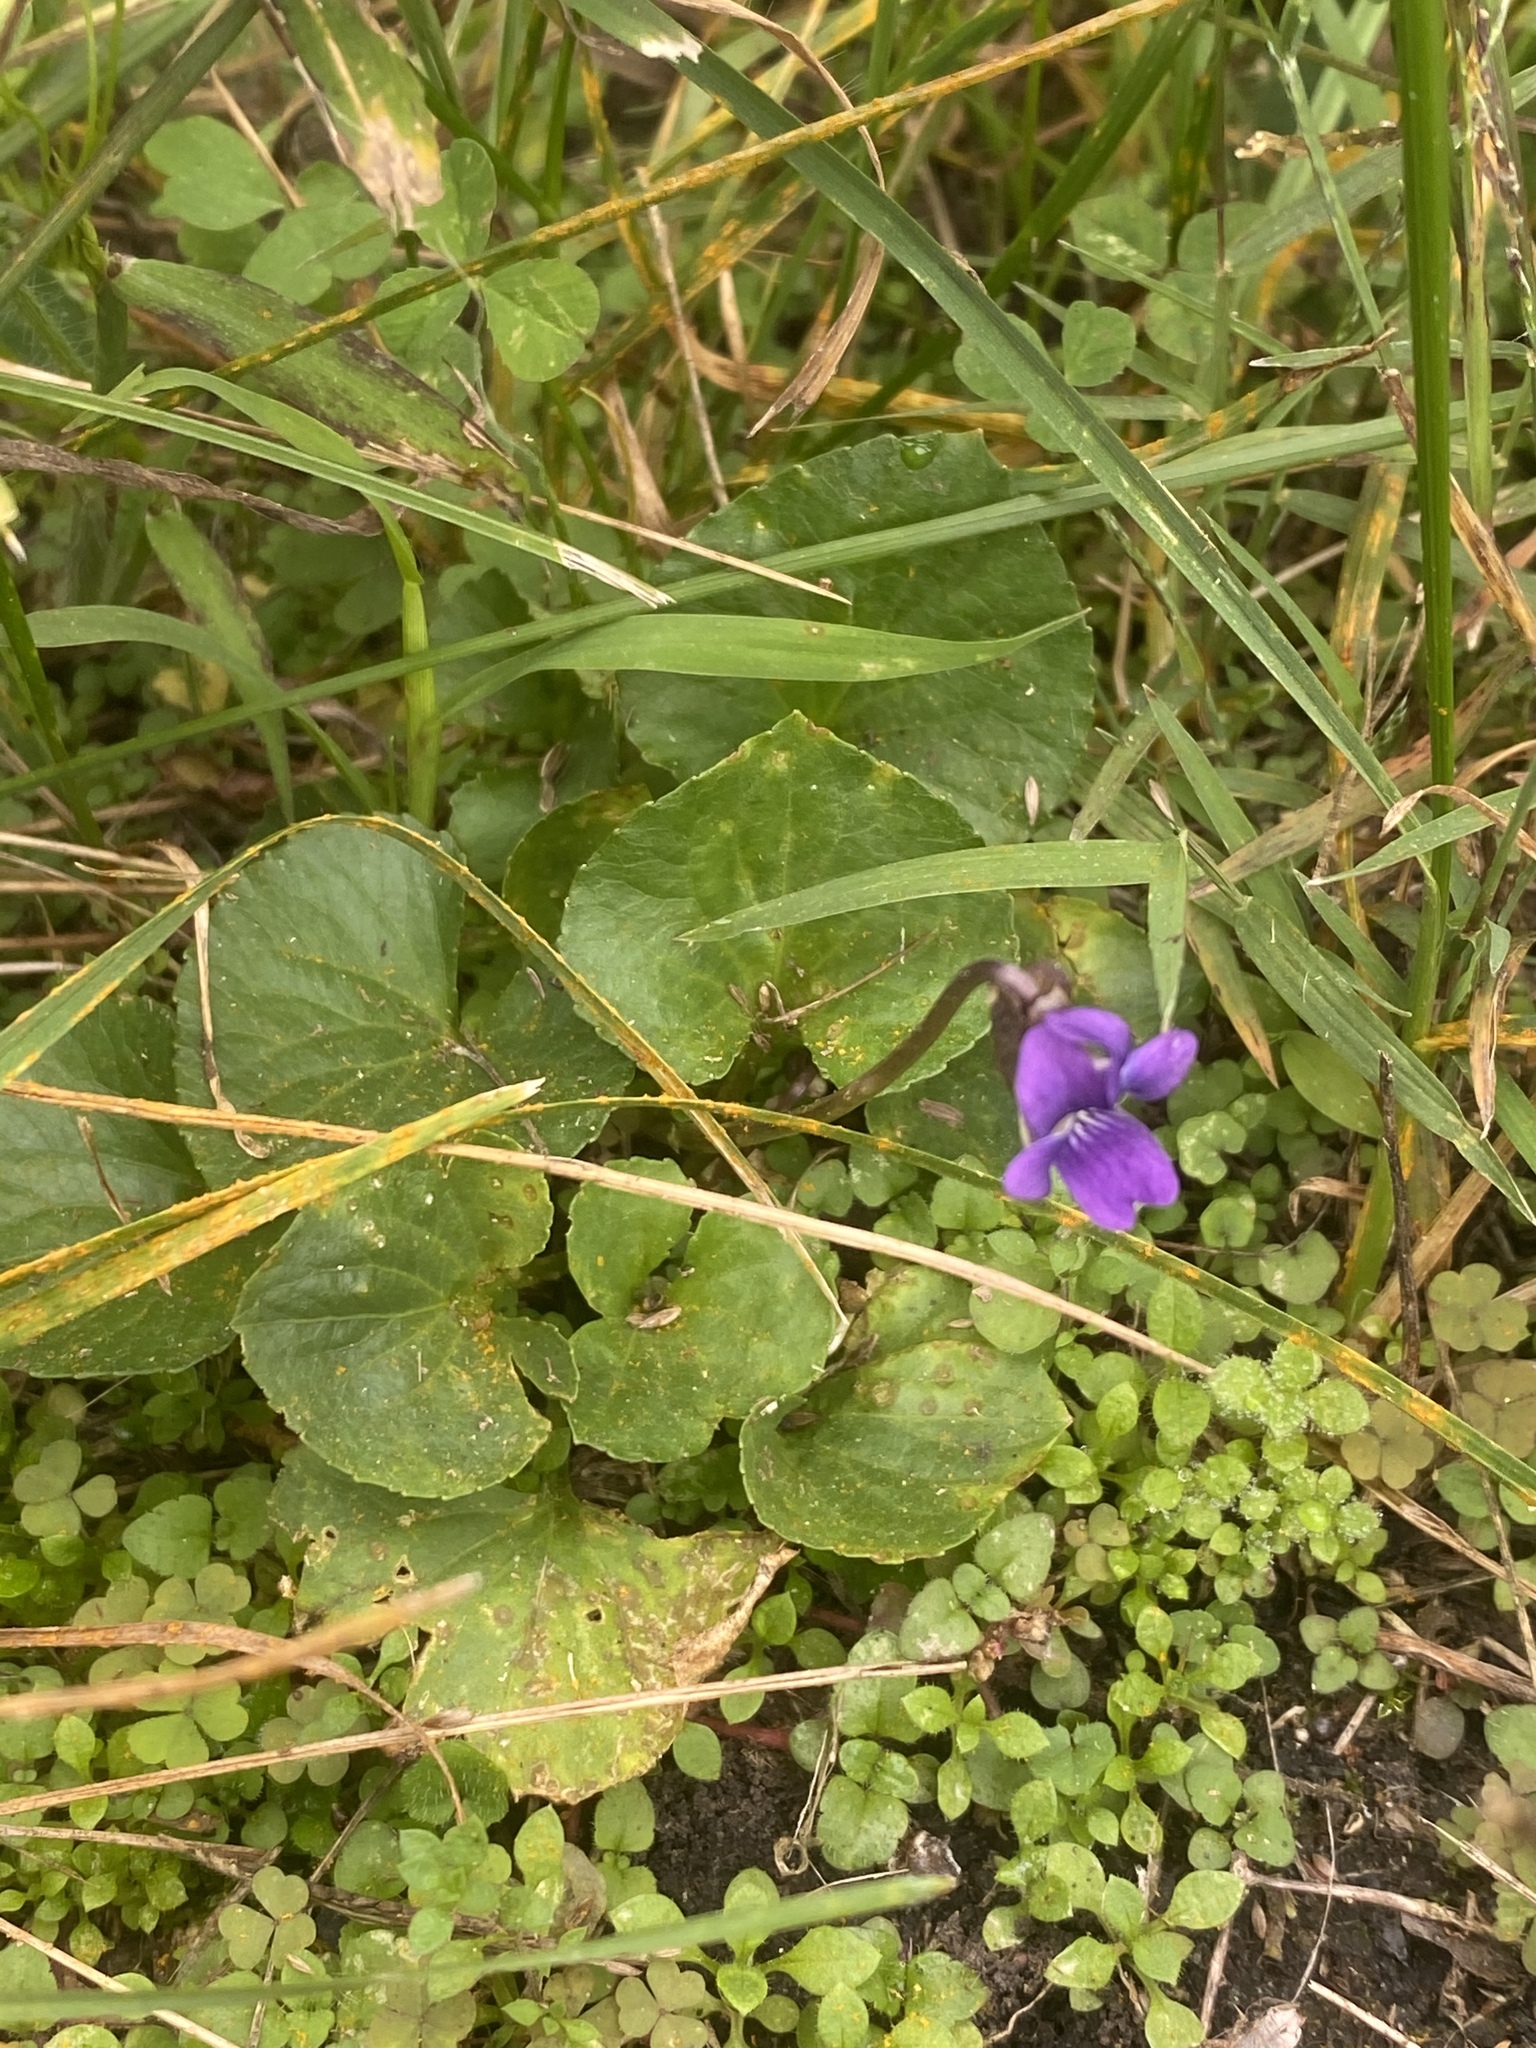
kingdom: Plantae
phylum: Tracheophyta
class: Magnoliopsida
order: Malpighiales
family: Violaceae
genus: Viola
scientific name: Viola sororia
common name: Dooryard violet
